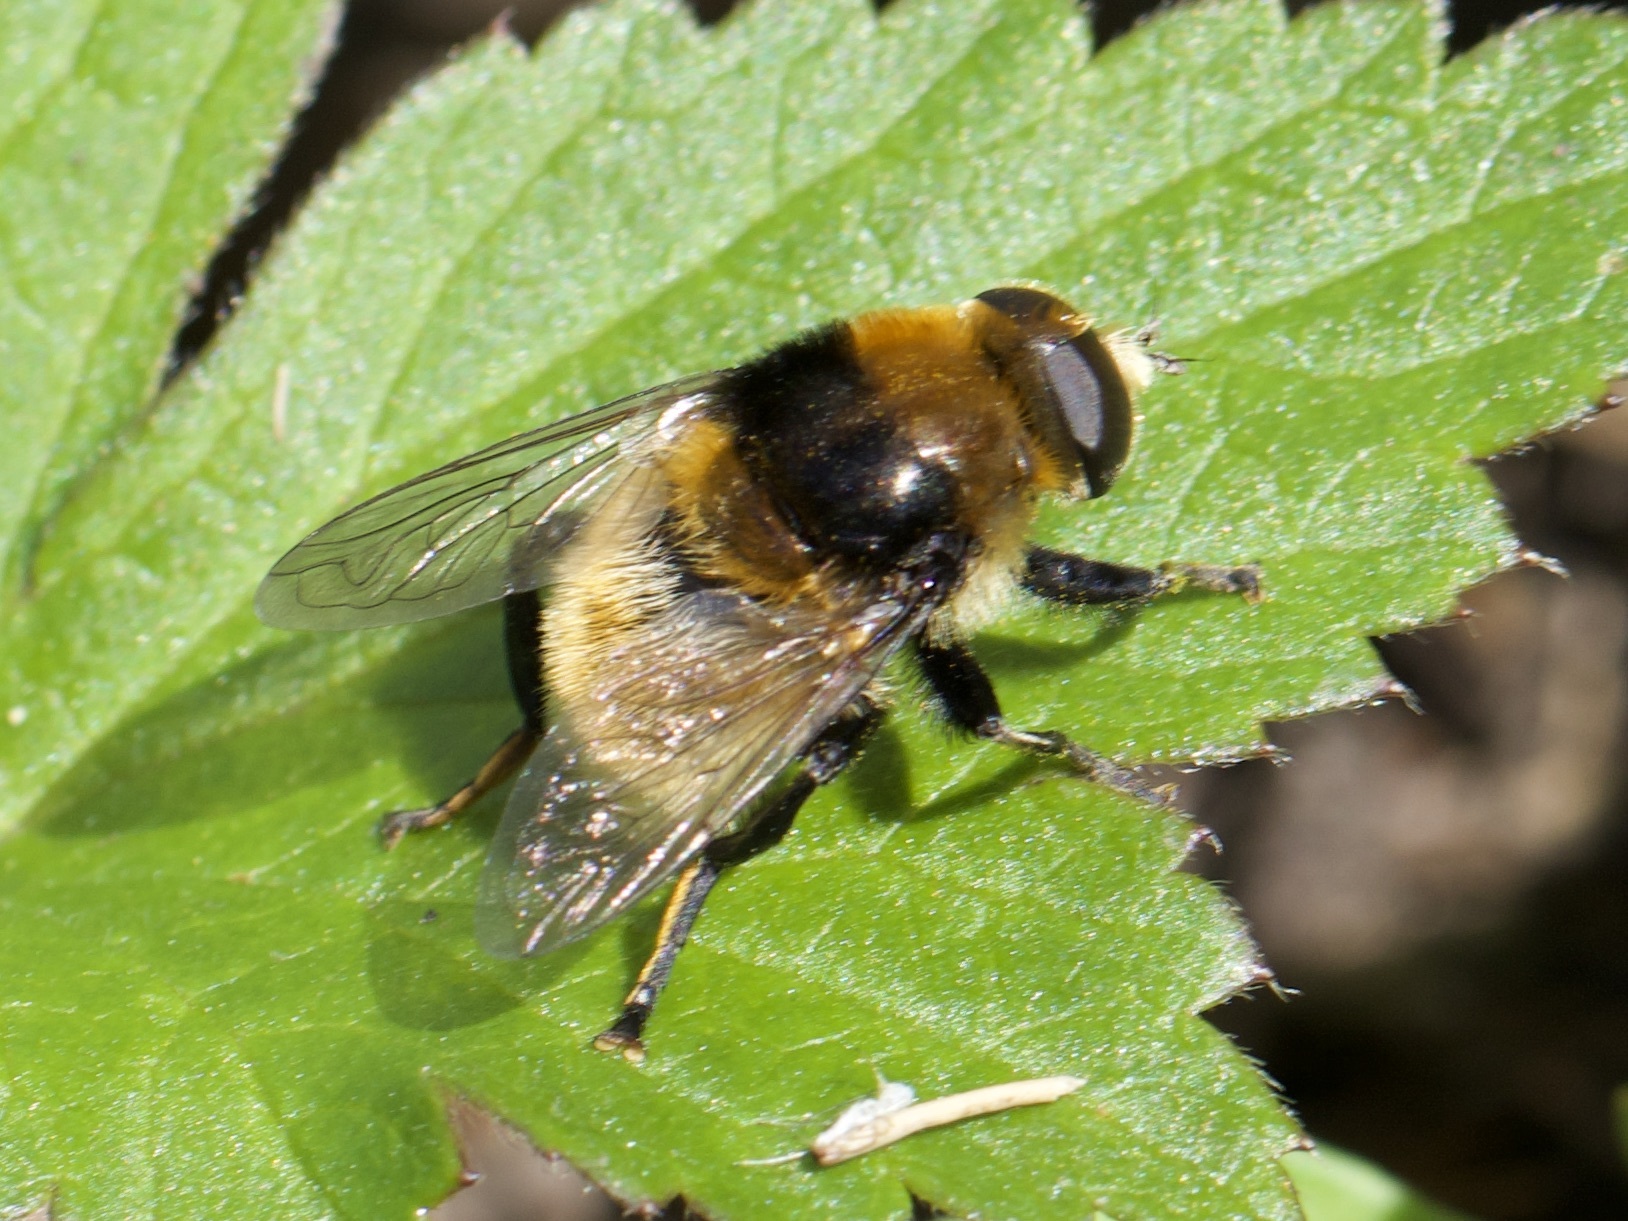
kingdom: Animalia
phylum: Arthropoda
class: Insecta
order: Diptera
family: Syrphidae
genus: Merodon
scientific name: Merodon equestris
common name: Greater bulb-fly
